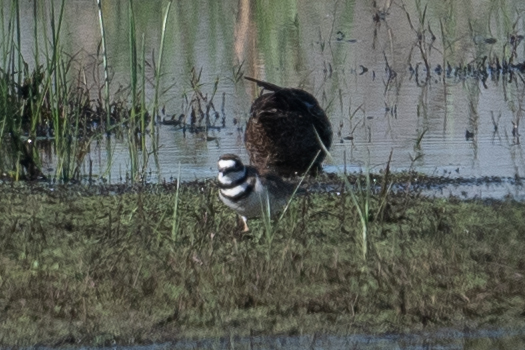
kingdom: Animalia
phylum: Chordata
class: Aves
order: Charadriiformes
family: Charadriidae
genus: Charadrius
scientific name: Charadrius vociferus
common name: Killdeer
